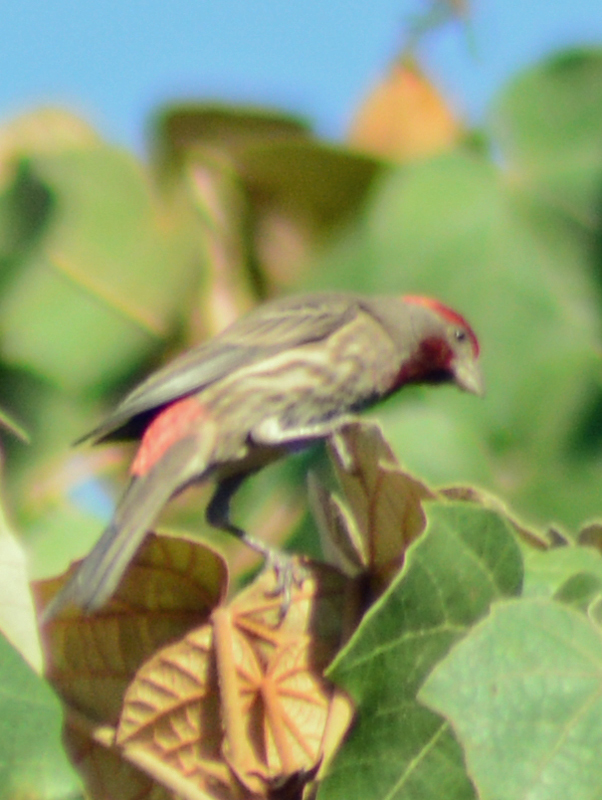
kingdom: Animalia
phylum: Chordata
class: Aves
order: Passeriformes
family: Fringillidae
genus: Haemorhous
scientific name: Haemorhous mexicanus
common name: House finch
